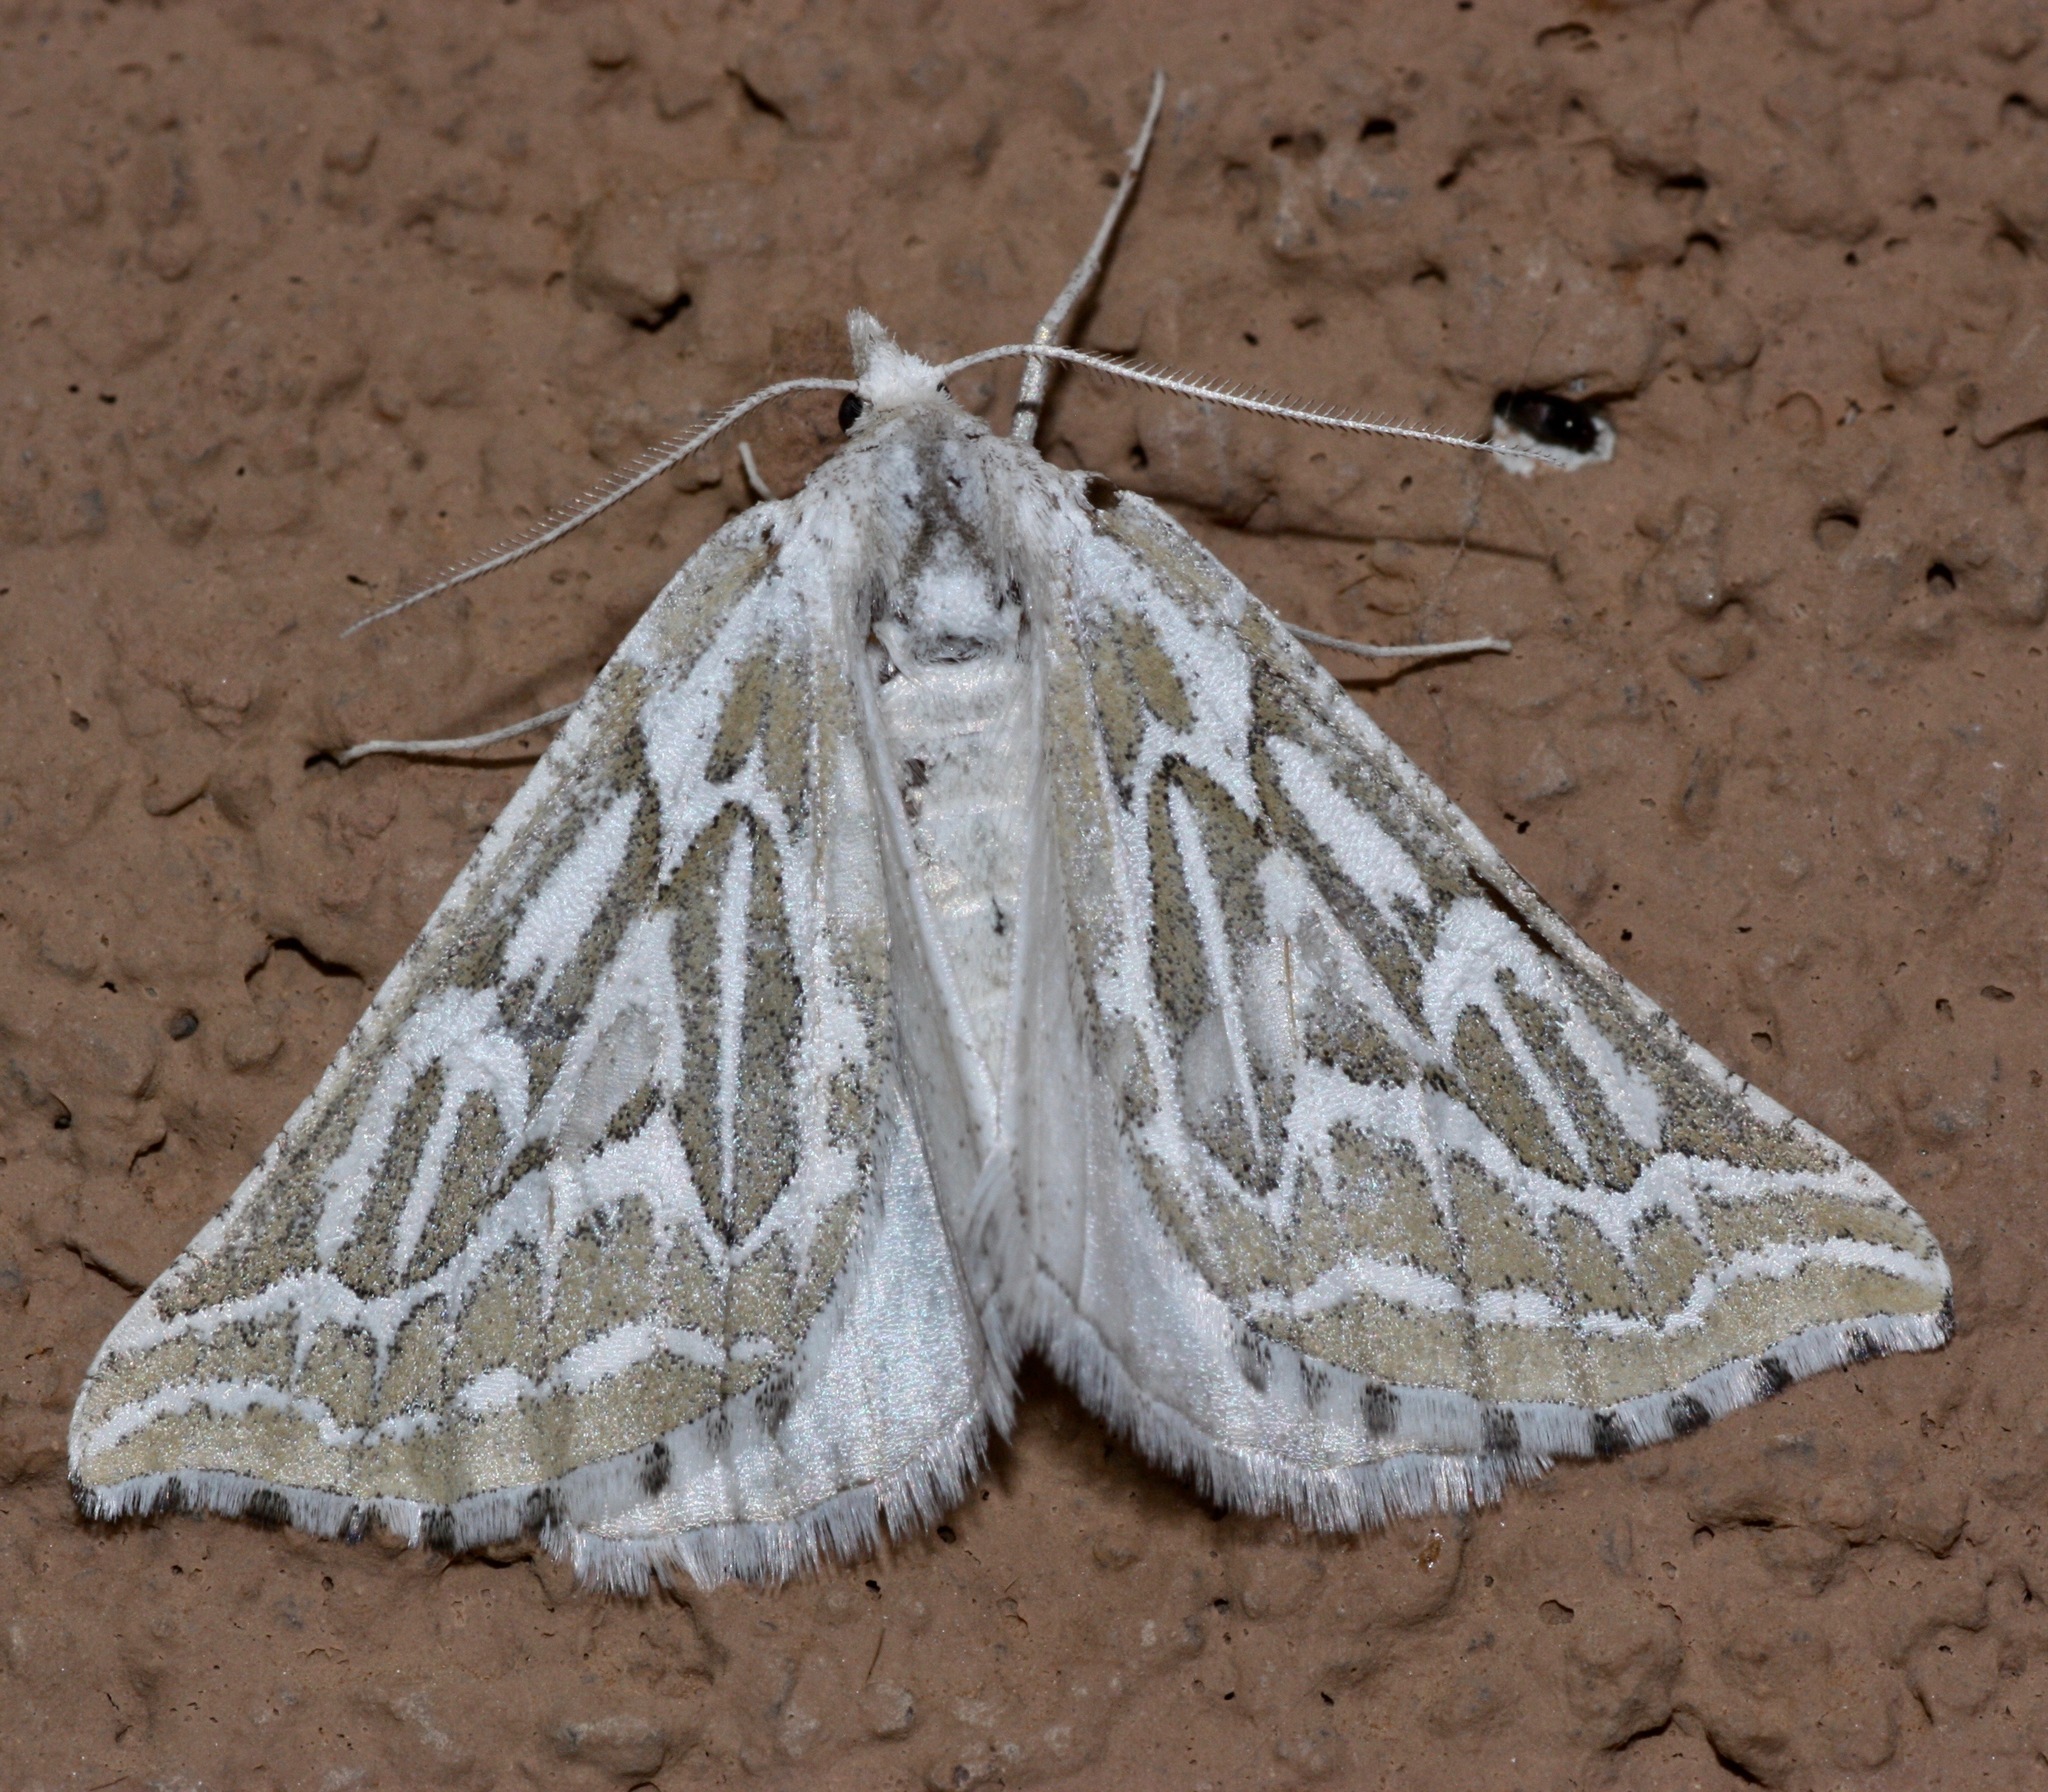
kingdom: Animalia
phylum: Arthropoda
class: Insecta
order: Lepidoptera
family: Geometridae
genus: Plataea
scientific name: Plataea trilinearia
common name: Sagebrush girdle moth
